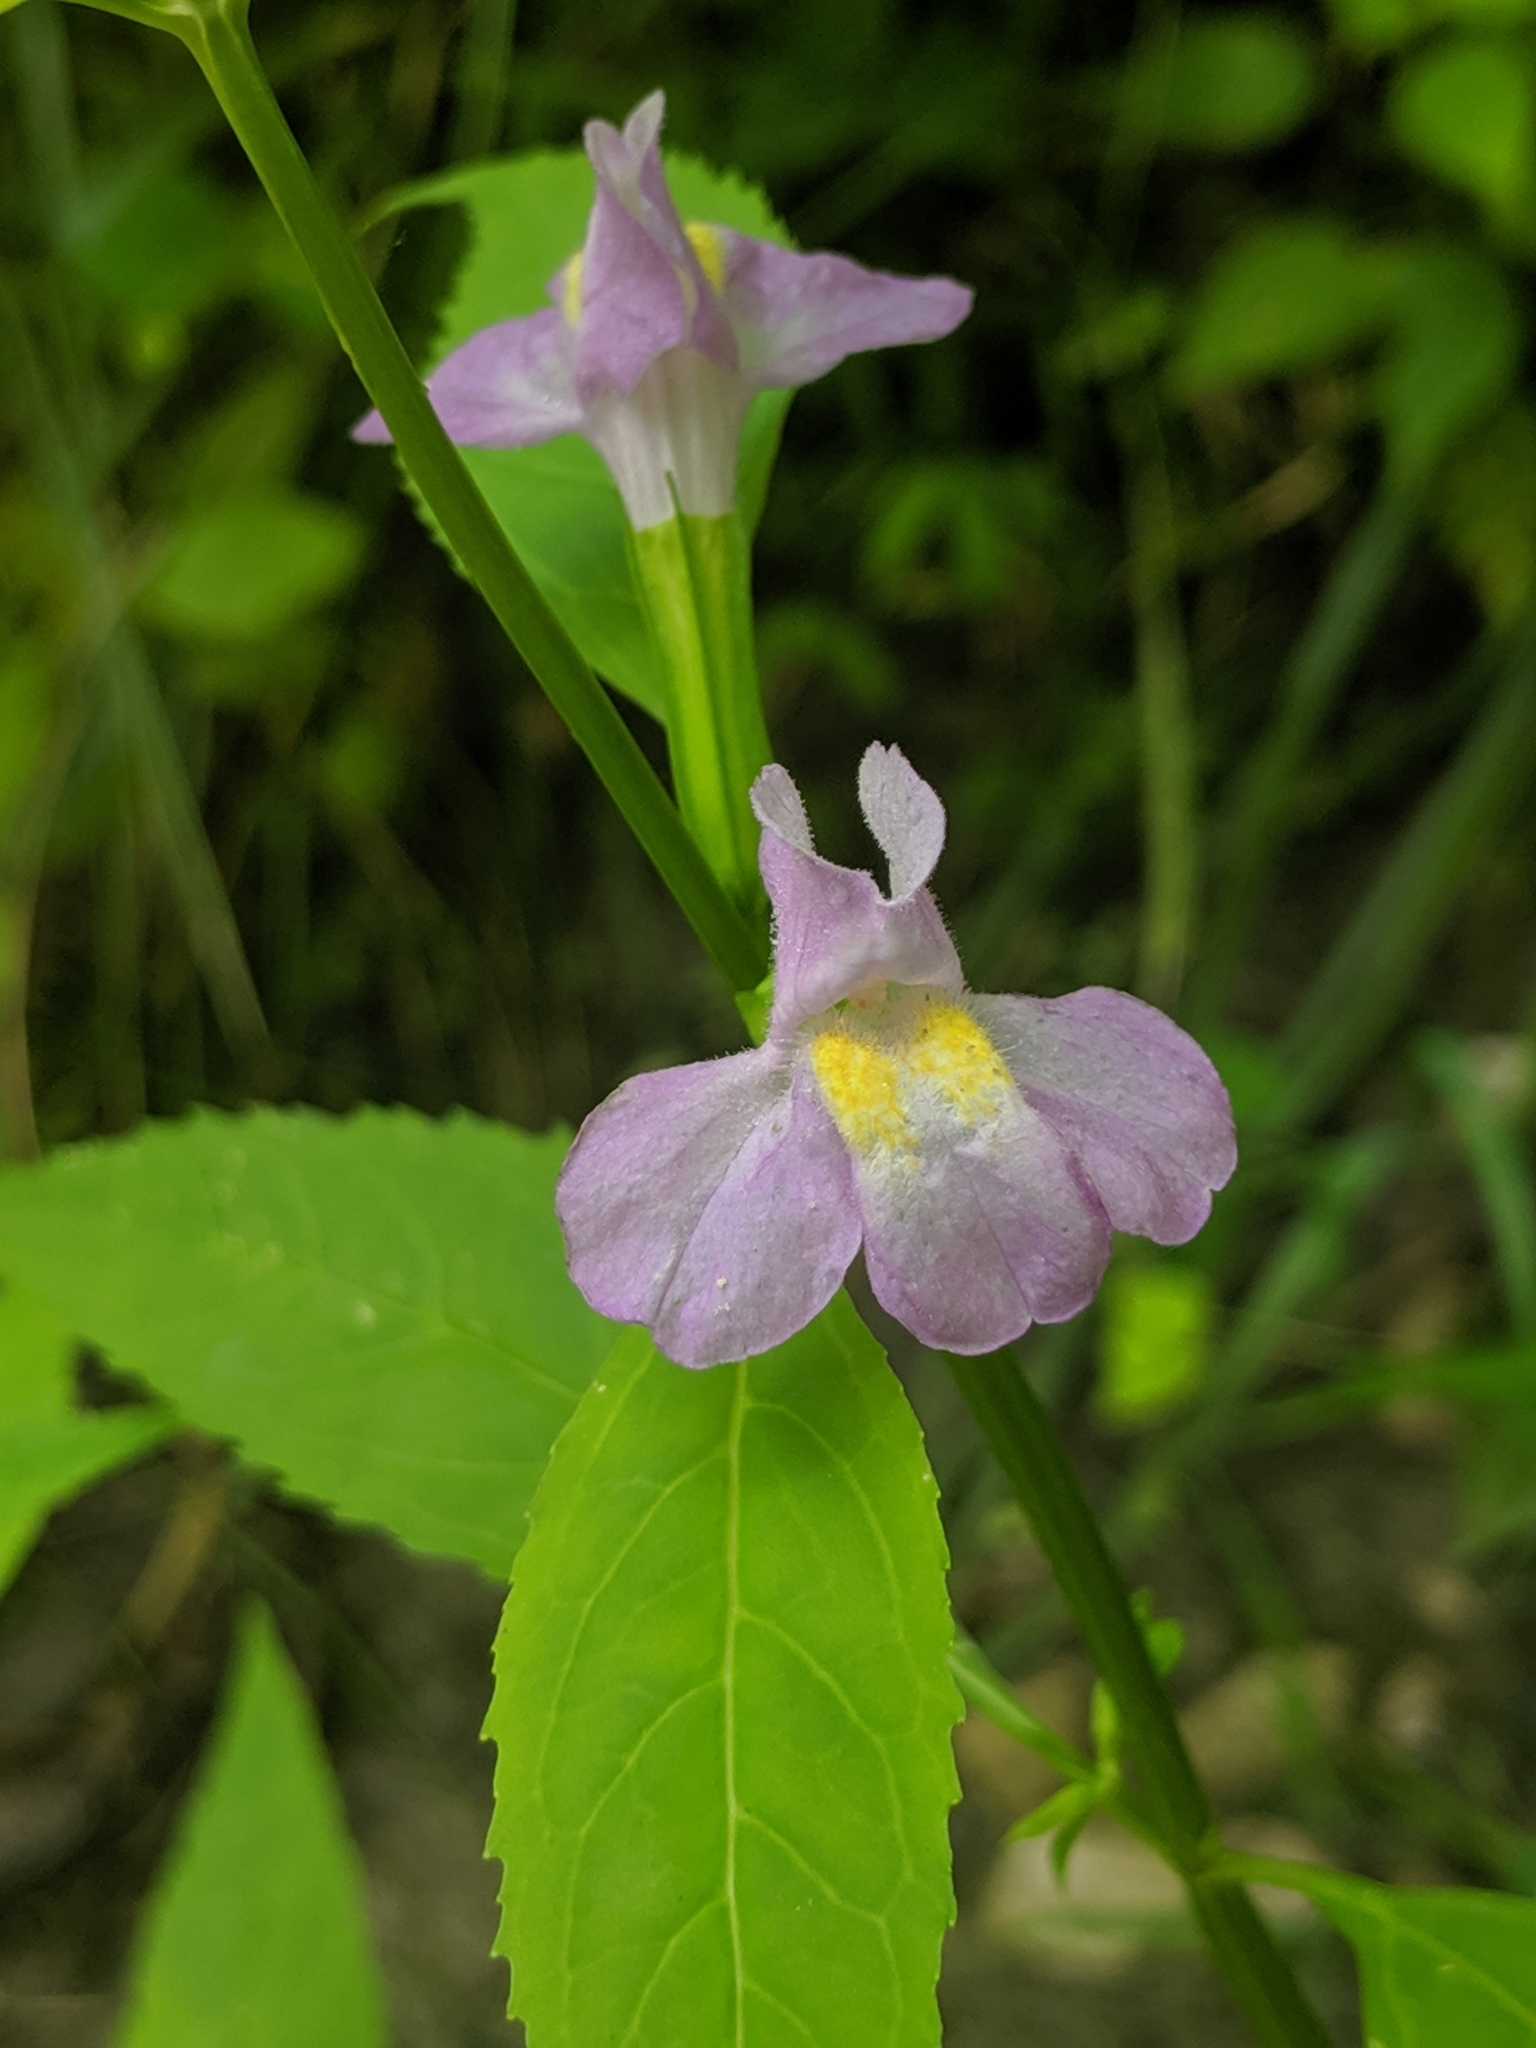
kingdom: Plantae
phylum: Tracheophyta
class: Magnoliopsida
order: Lamiales
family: Phrymaceae
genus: Mimulus
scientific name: Mimulus alatus
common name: Sharp-wing monkey-flower
